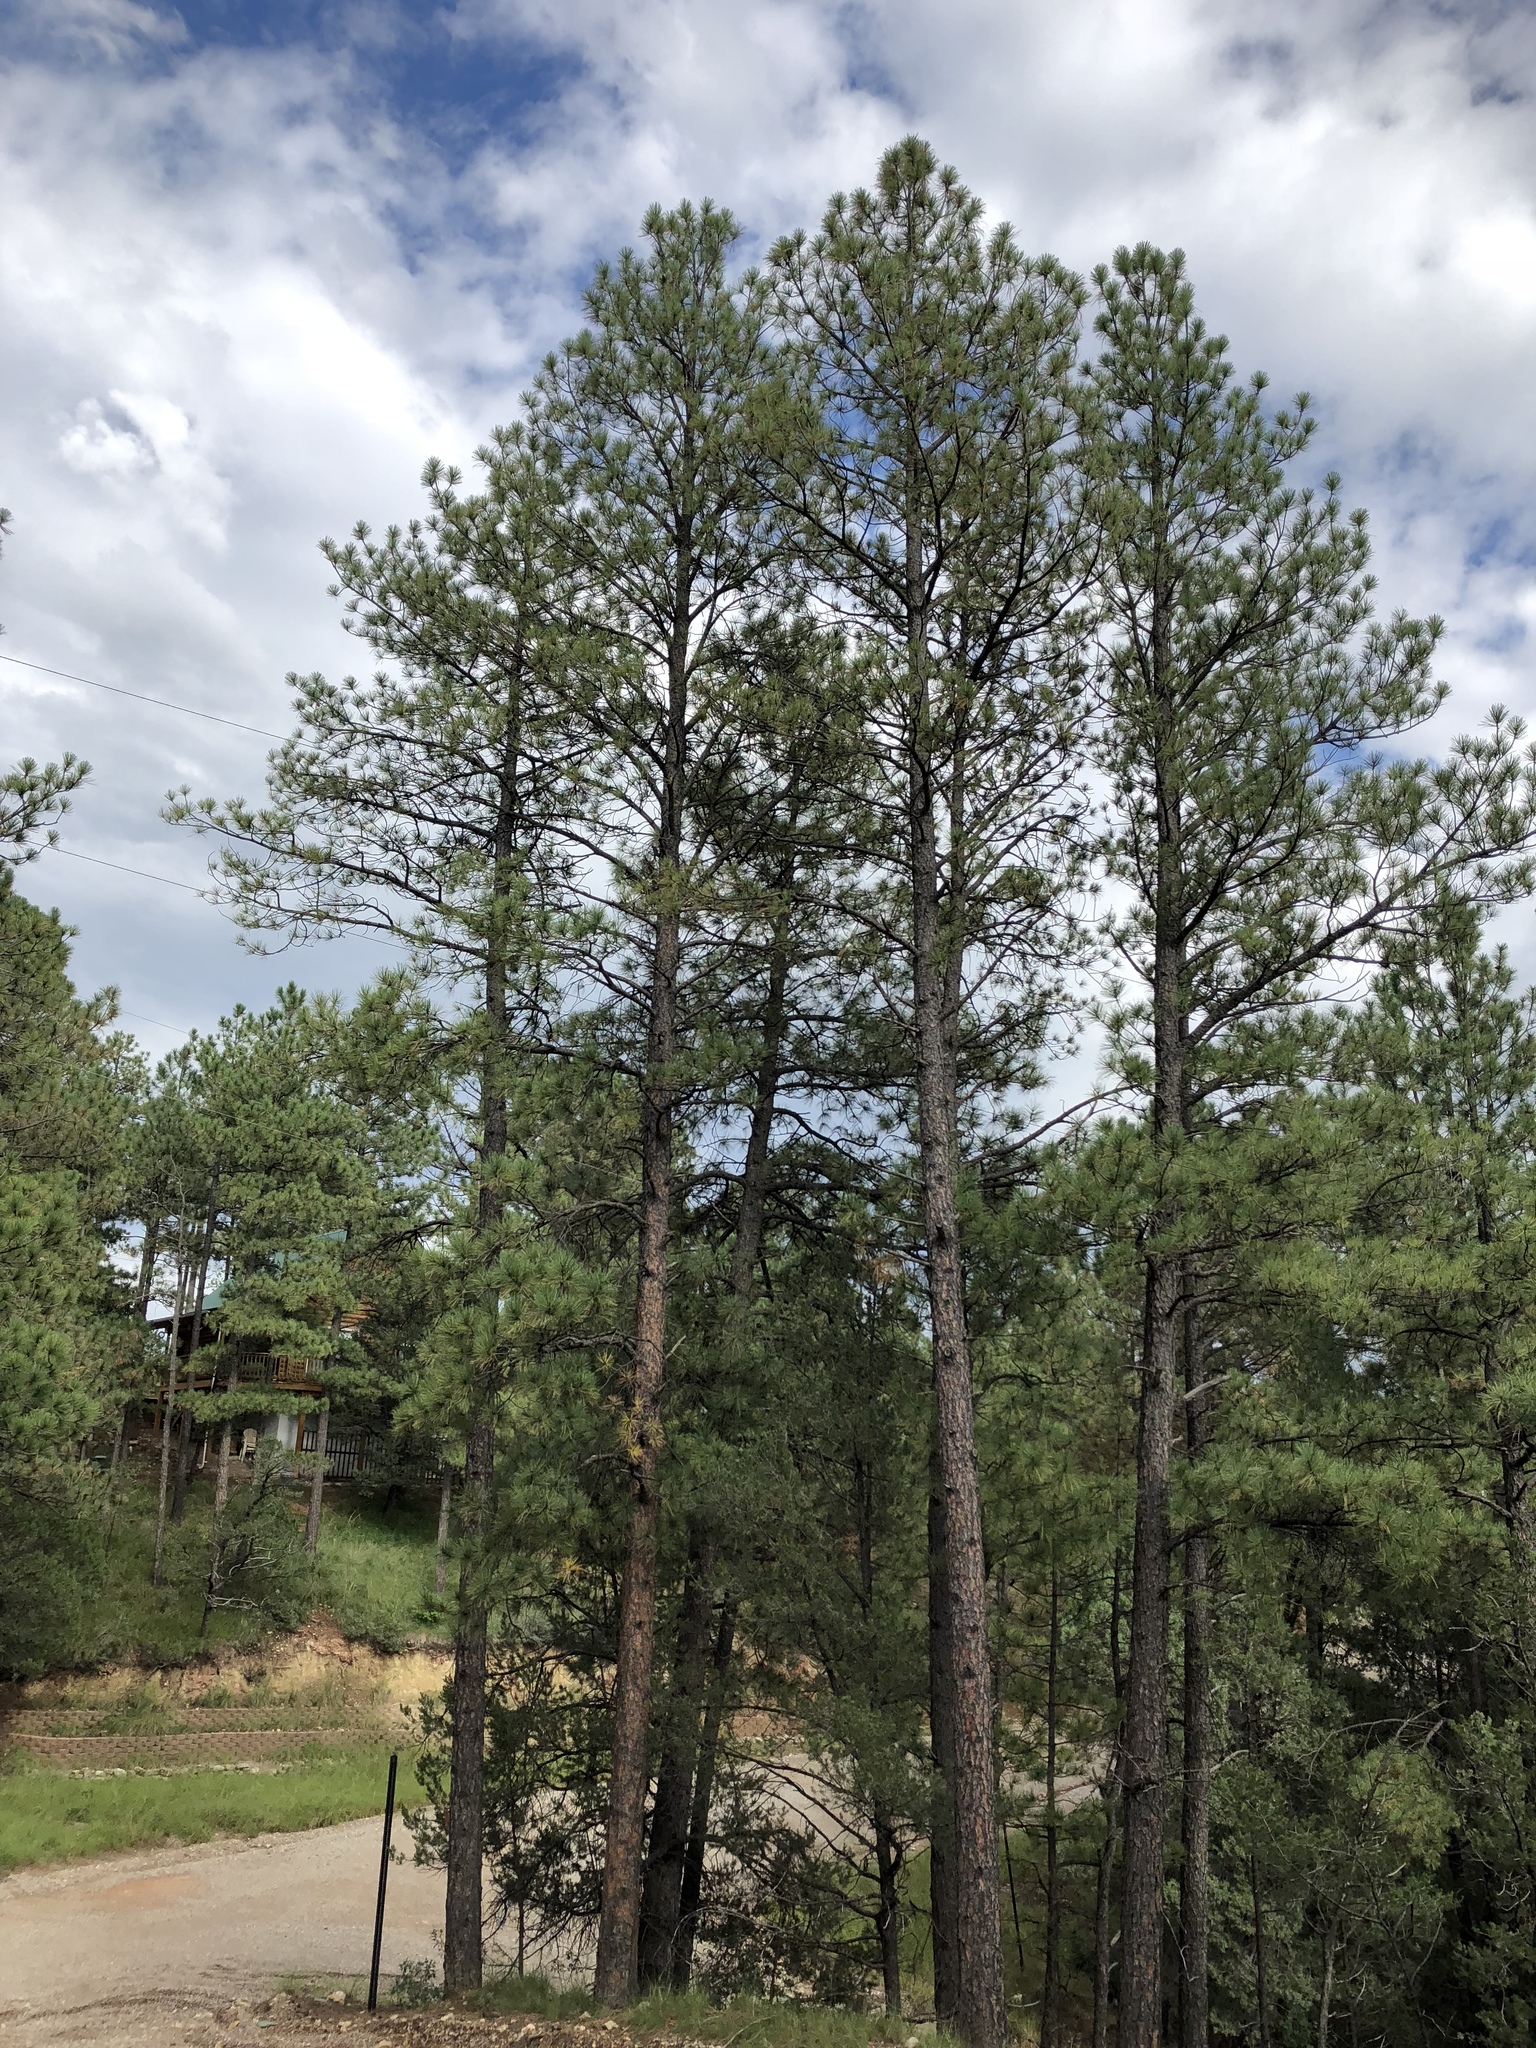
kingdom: Plantae
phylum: Tracheophyta
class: Pinopsida
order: Pinales
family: Pinaceae
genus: Pinus
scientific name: Pinus ponderosa
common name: Western yellow-pine
